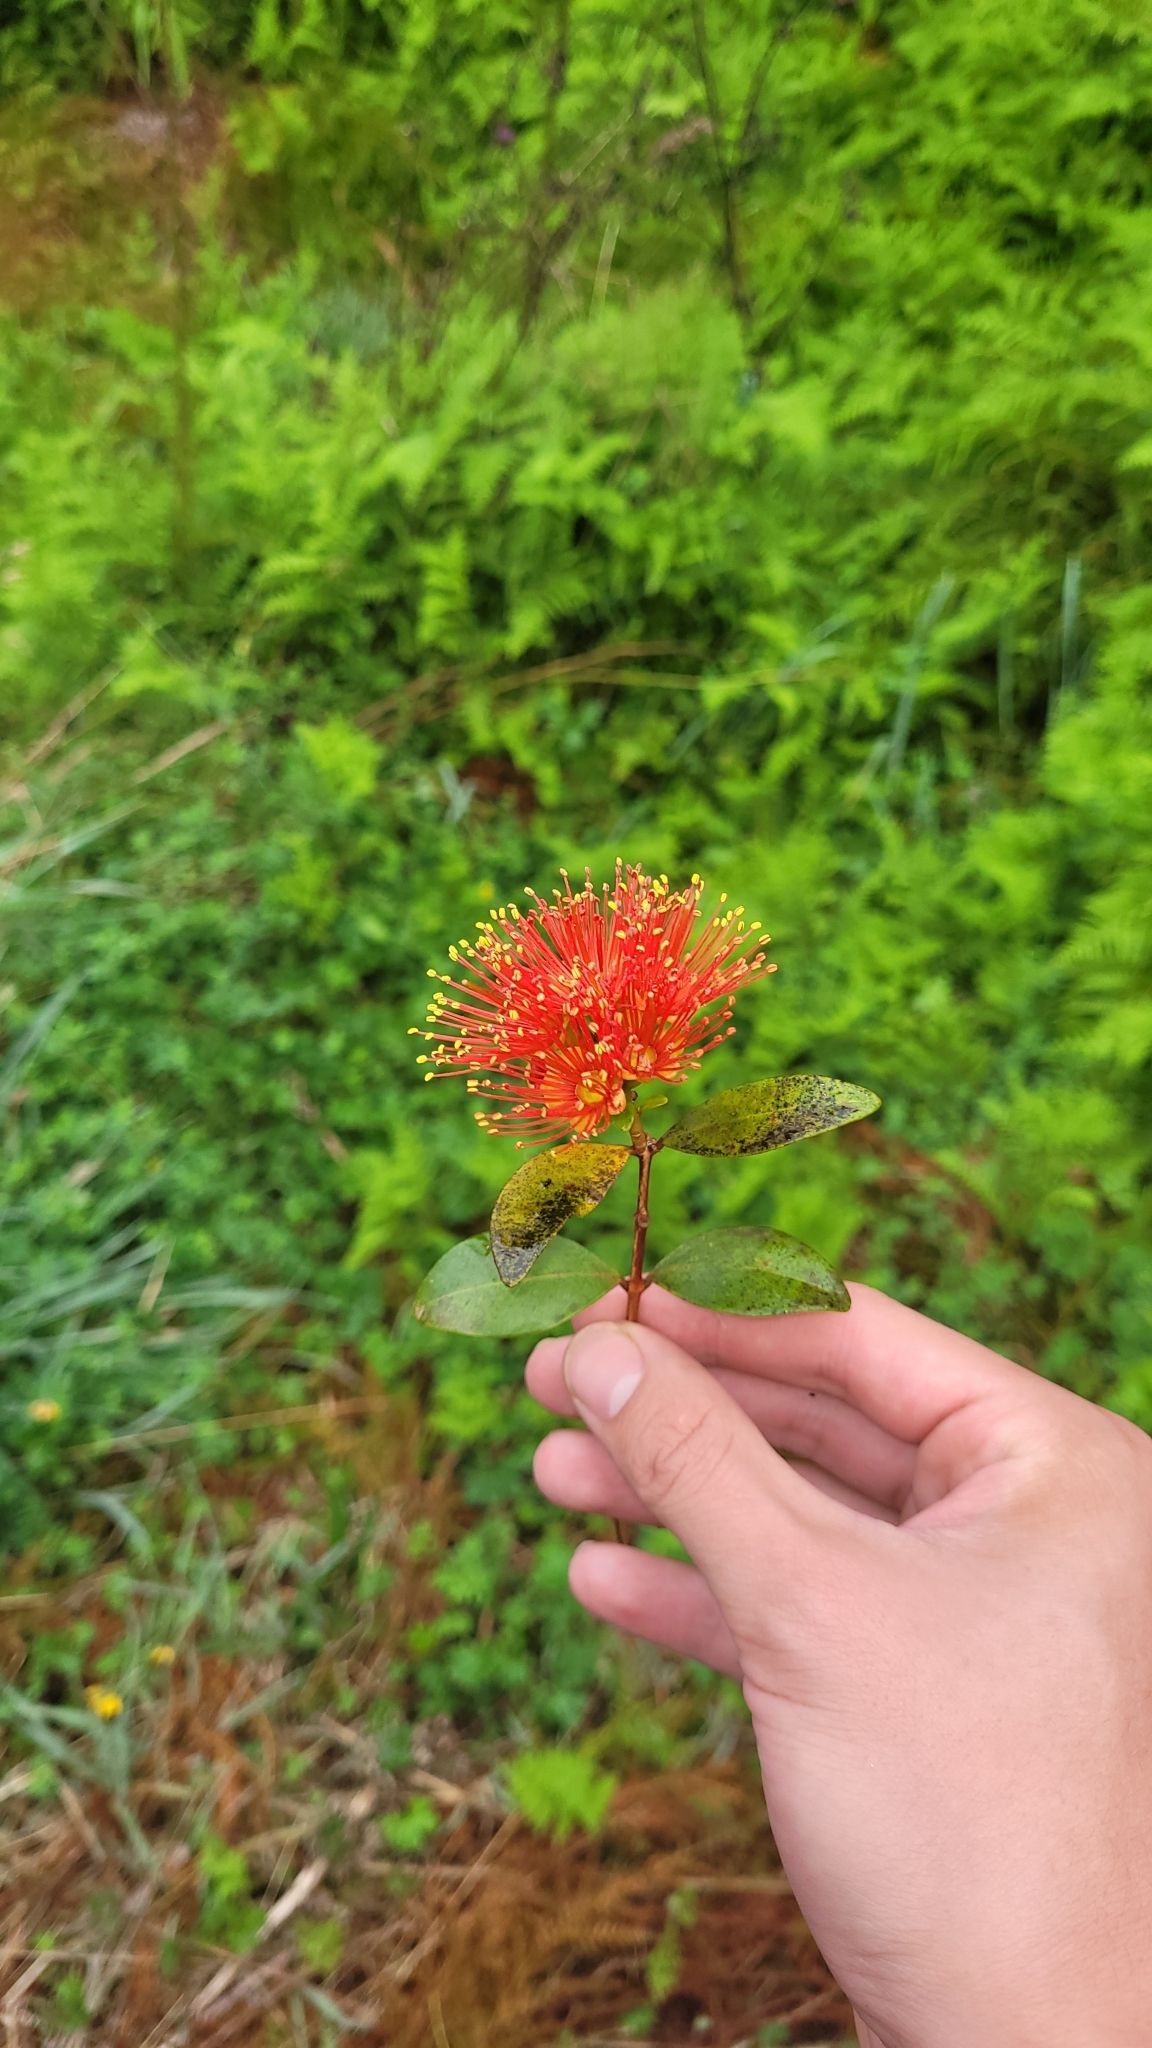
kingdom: Plantae
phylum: Tracheophyta
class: Magnoliopsida
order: Myrtales
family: Myrtaceae
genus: Metrosideros
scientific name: Metrosideros fulgens
